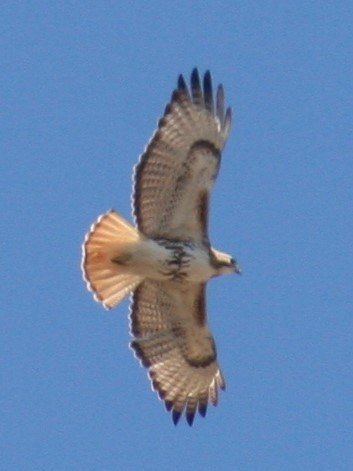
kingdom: Animalia
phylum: Chordata
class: Aves
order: Accipitriformes
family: Accipitridae
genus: Buteo
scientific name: Buteo jamaicensis
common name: Red-tailed hawk
